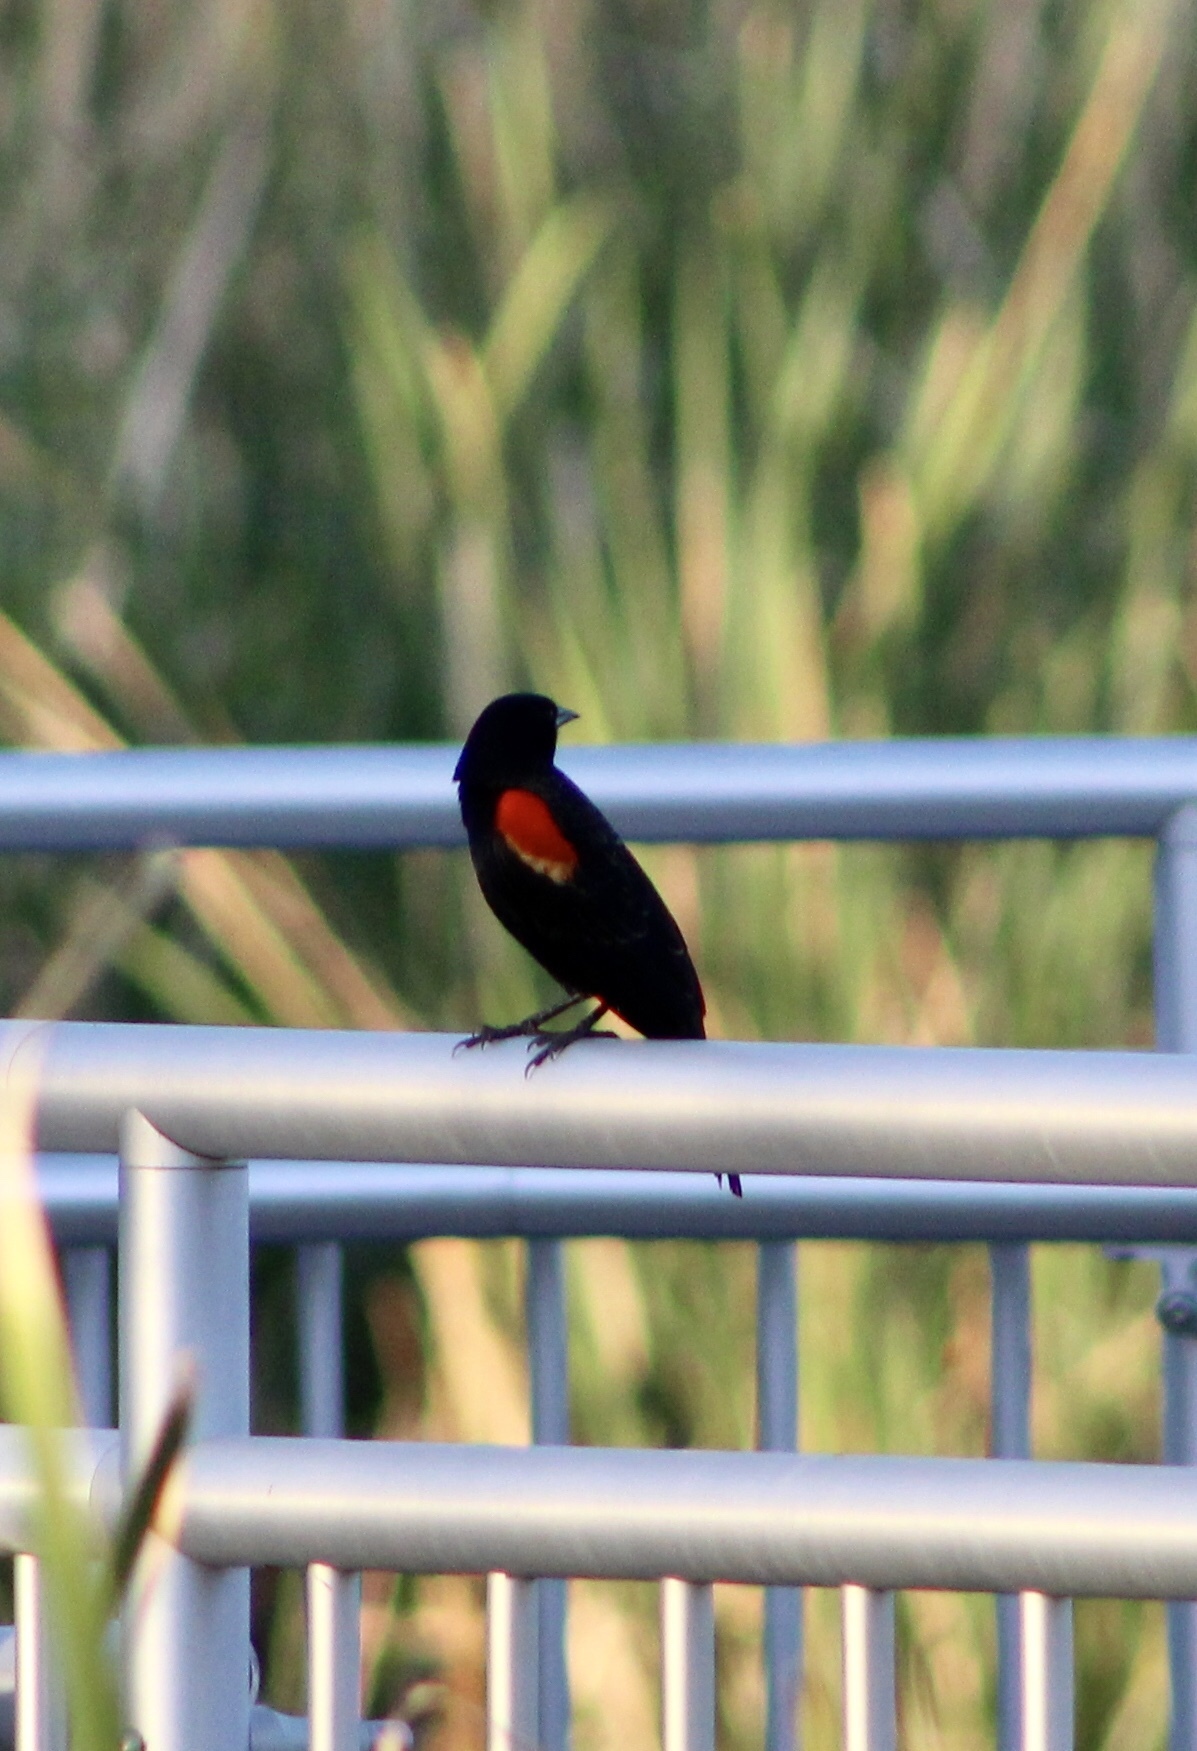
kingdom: Animalia
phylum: Chordata
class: Aves
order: Passeriformes
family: Icteridae
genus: Agelaius
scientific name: Agelaius phoeniceus
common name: Red-winged blackbird
